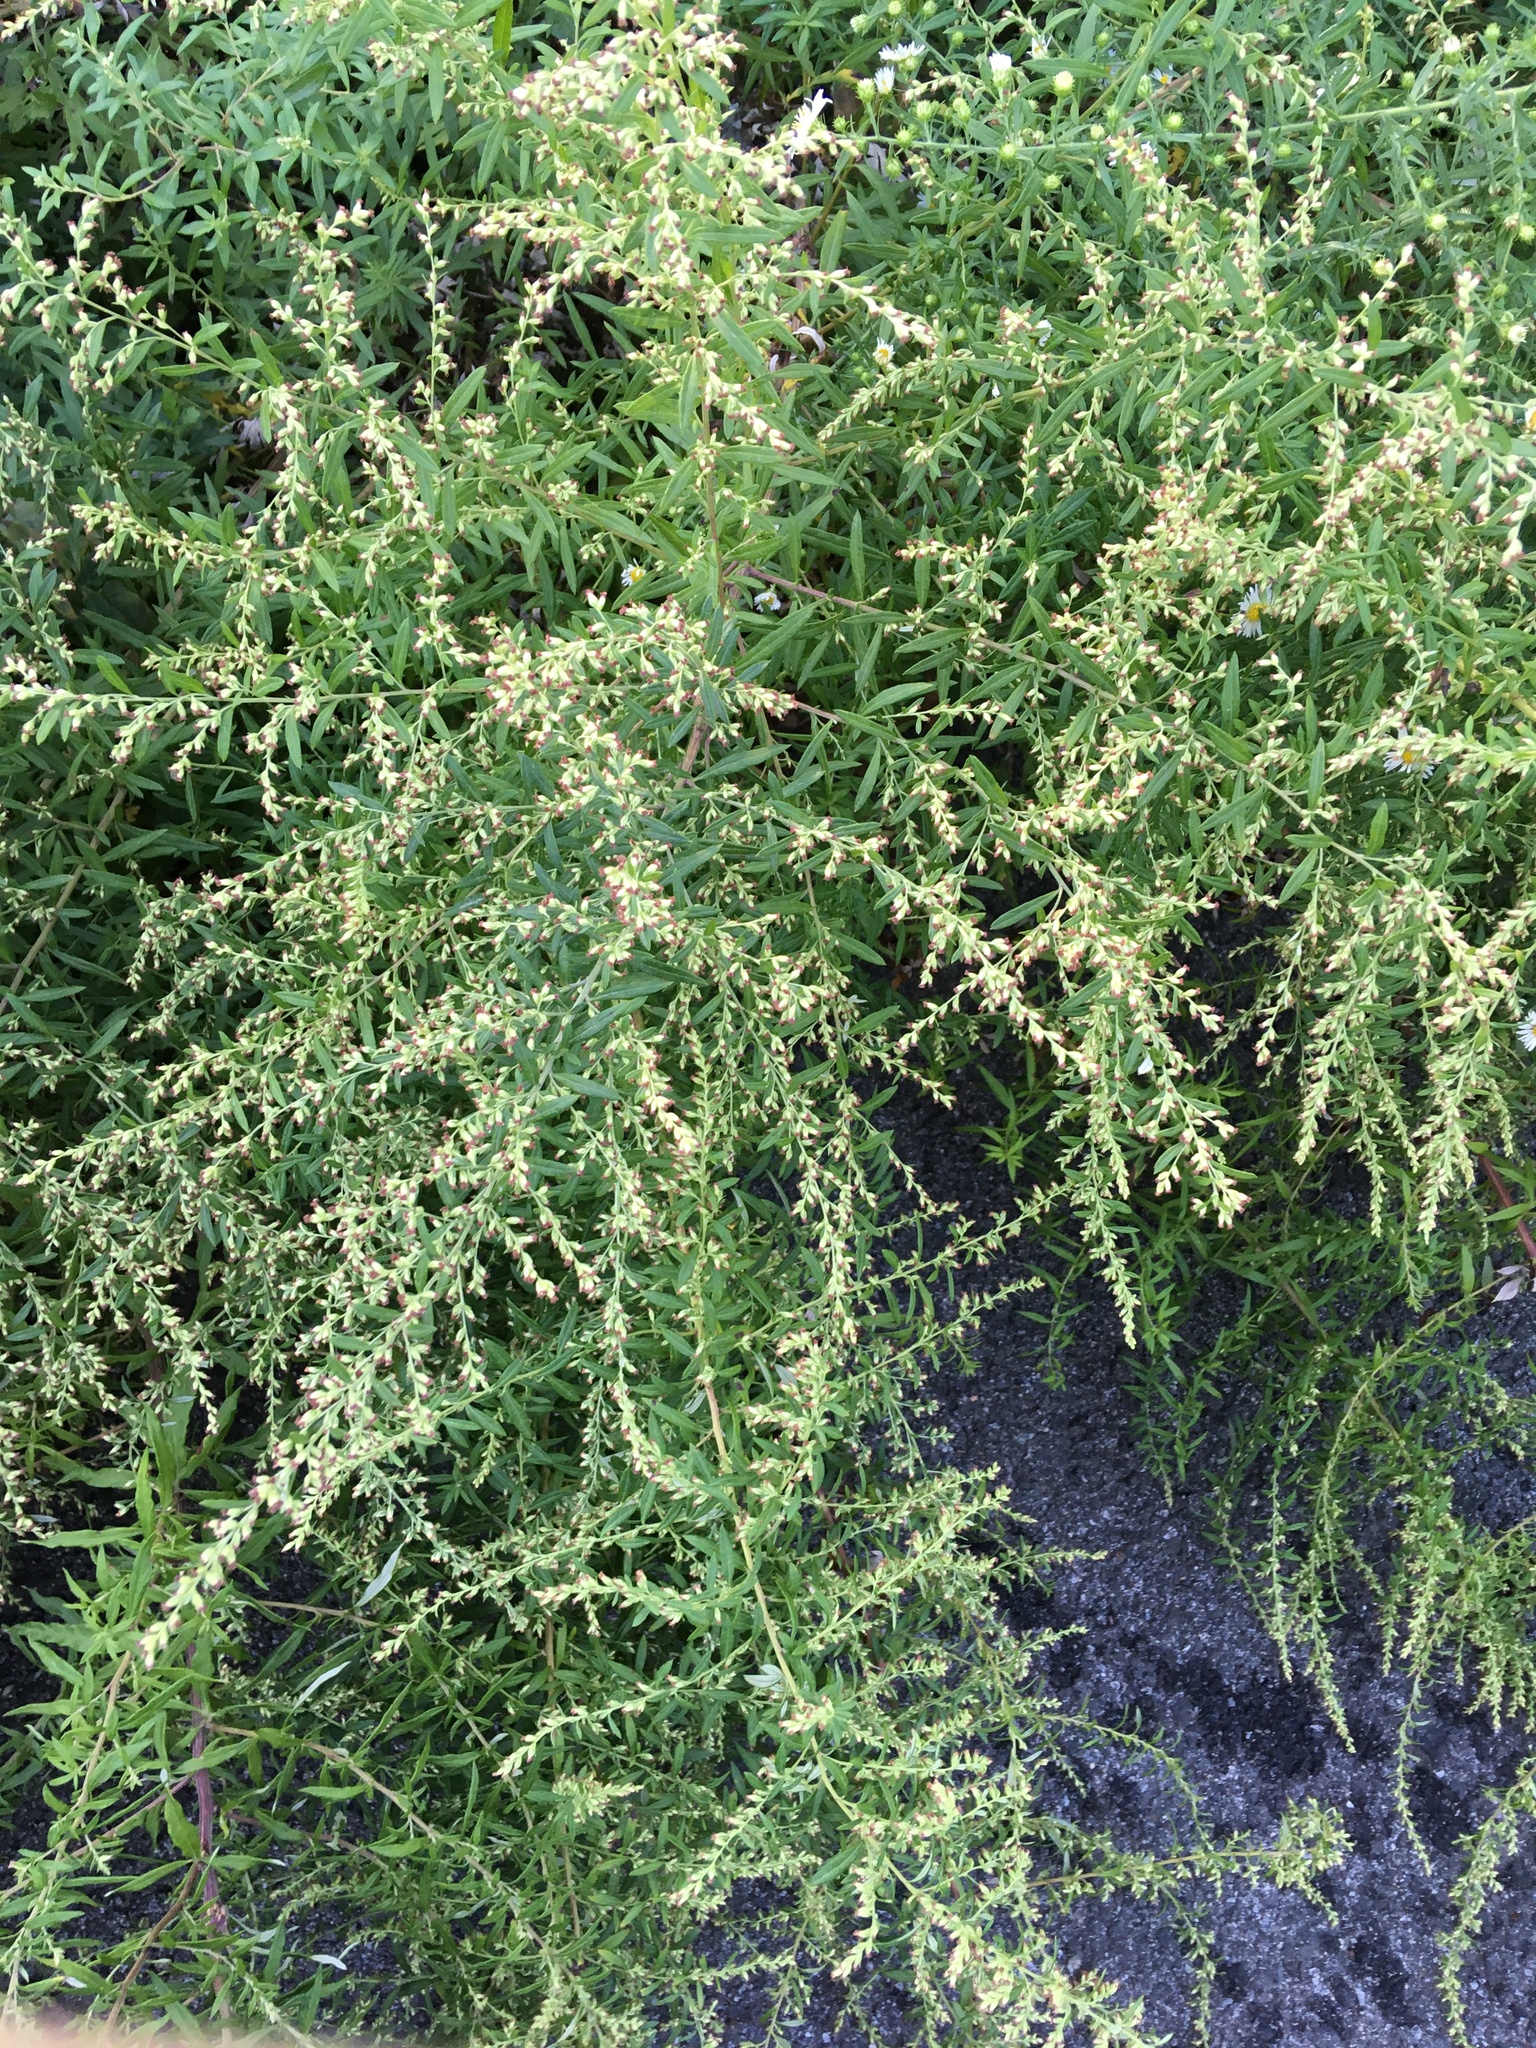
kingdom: Plantae
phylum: Tracheophyta
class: Magnoliopsida
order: Asterales
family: Asteraceae
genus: Artemisia
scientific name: Artemisia vulgaris
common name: Mugwort
